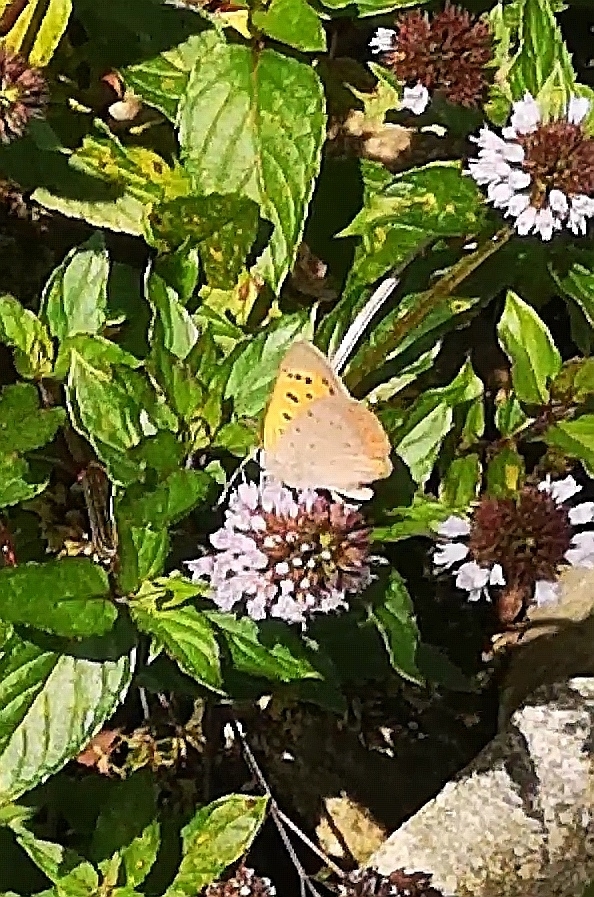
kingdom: Animalia
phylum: Arthropoda
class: Insecta
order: Lepidoptera
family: Lycaenidae
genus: Lycaena
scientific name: Lycaena phlaeas
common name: Small copper
